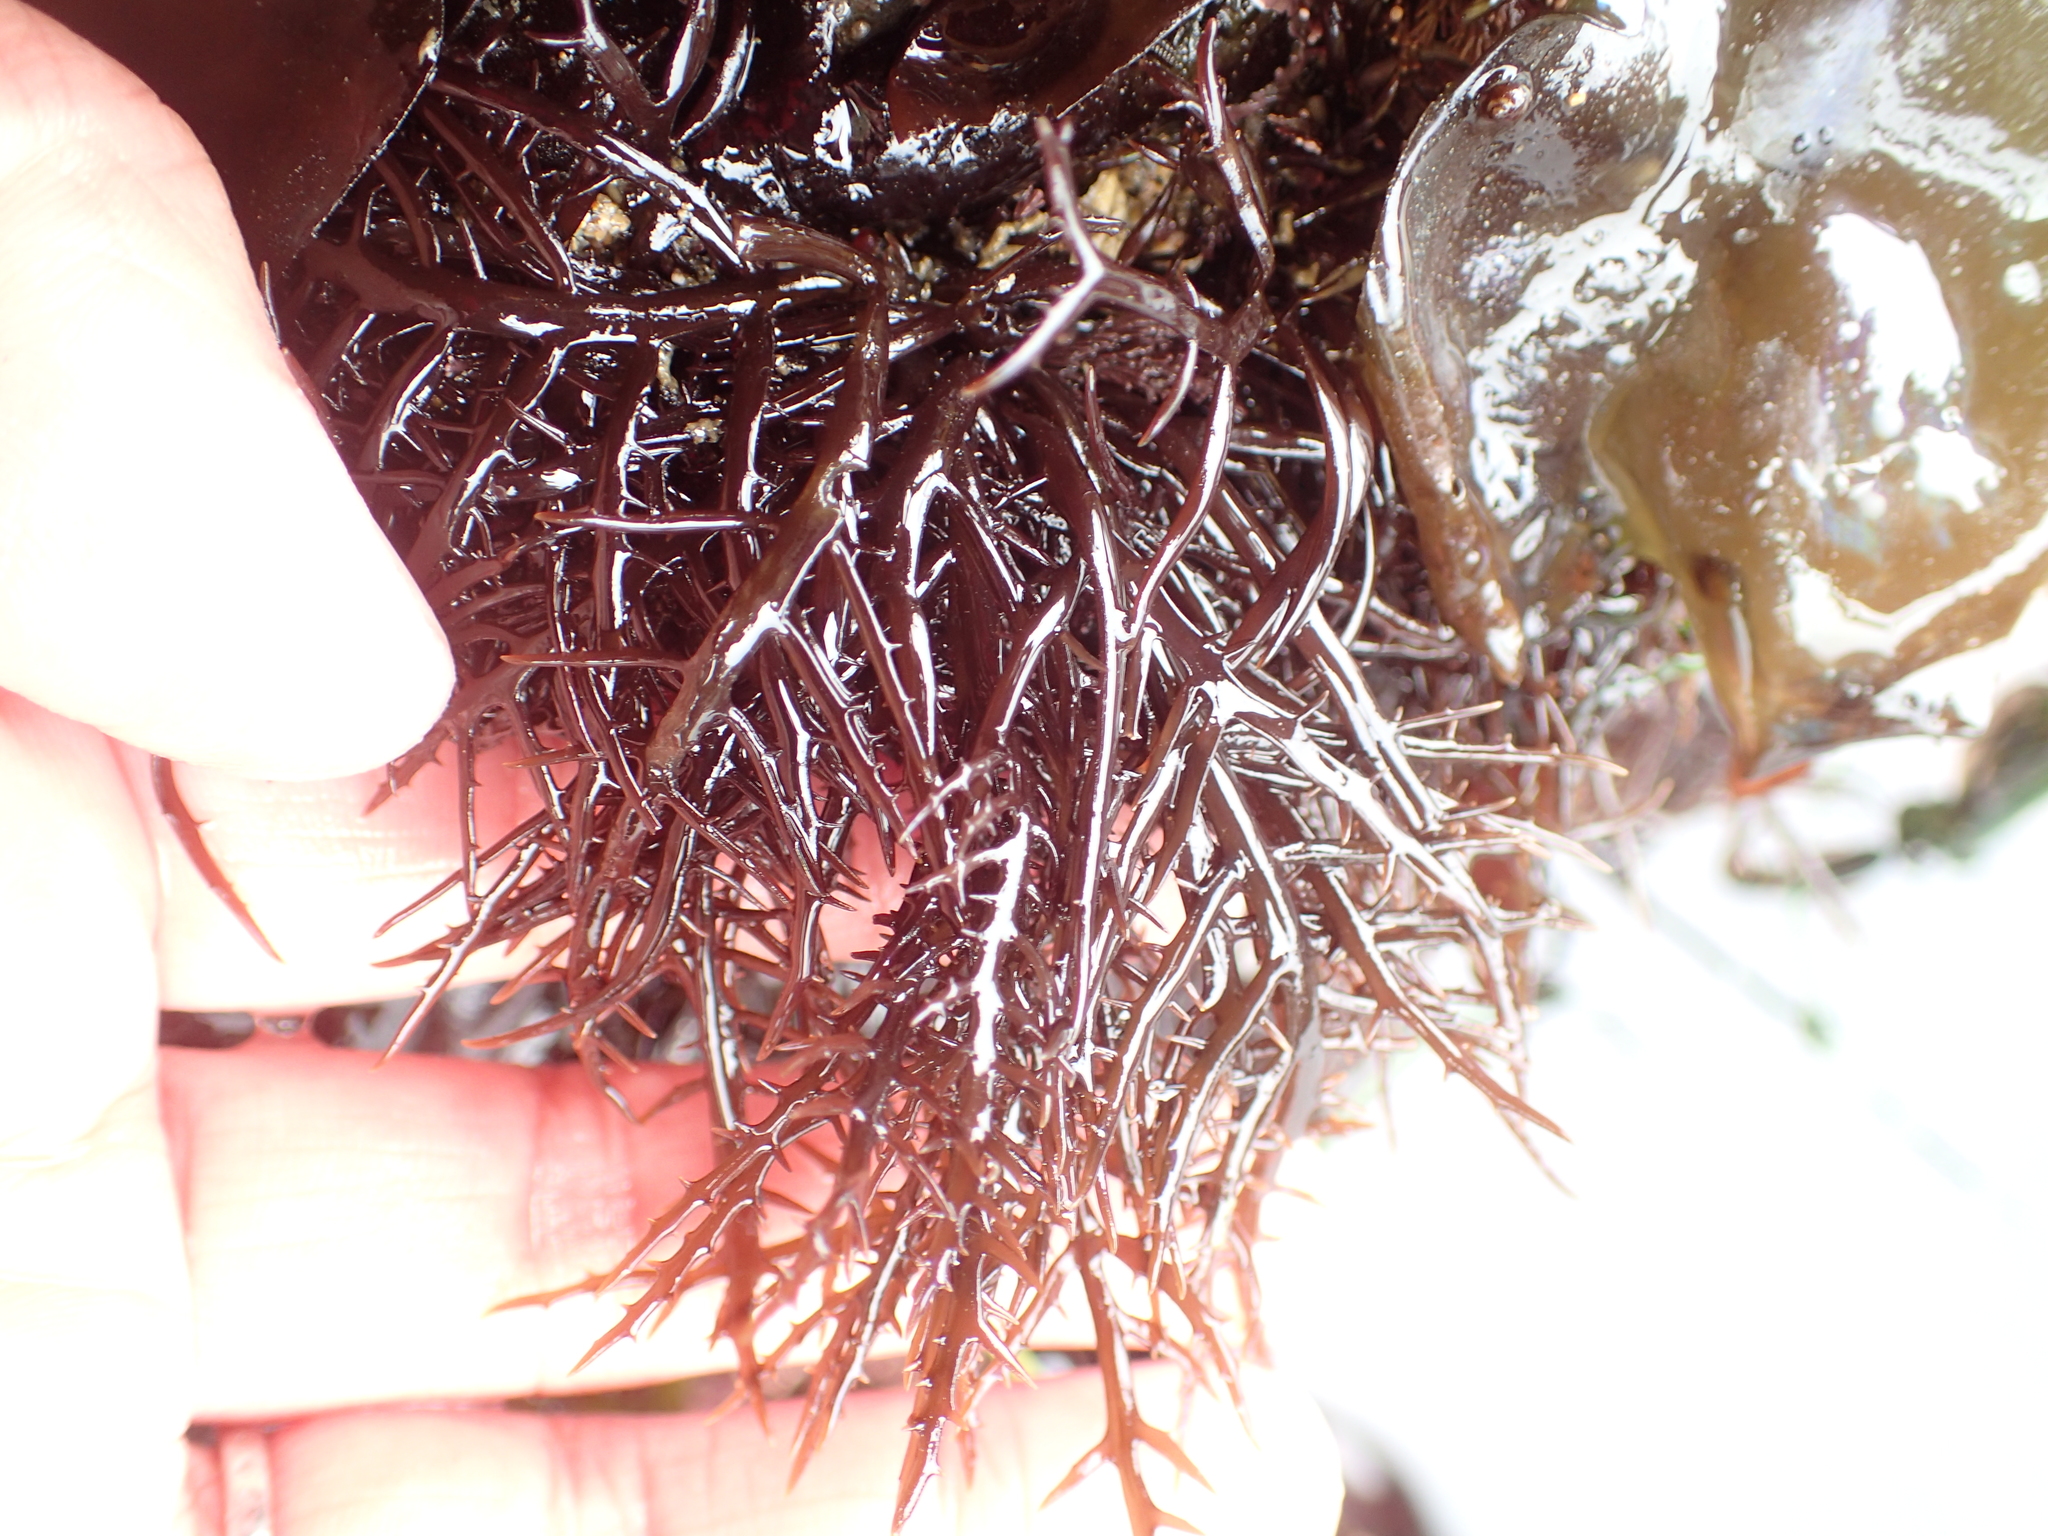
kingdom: Plantae
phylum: Rhodophyta
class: Florideophyceae
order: Gigartinales
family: Gigartinaceae
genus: Chondracanthus
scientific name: Chondracanthus canaliculatus
